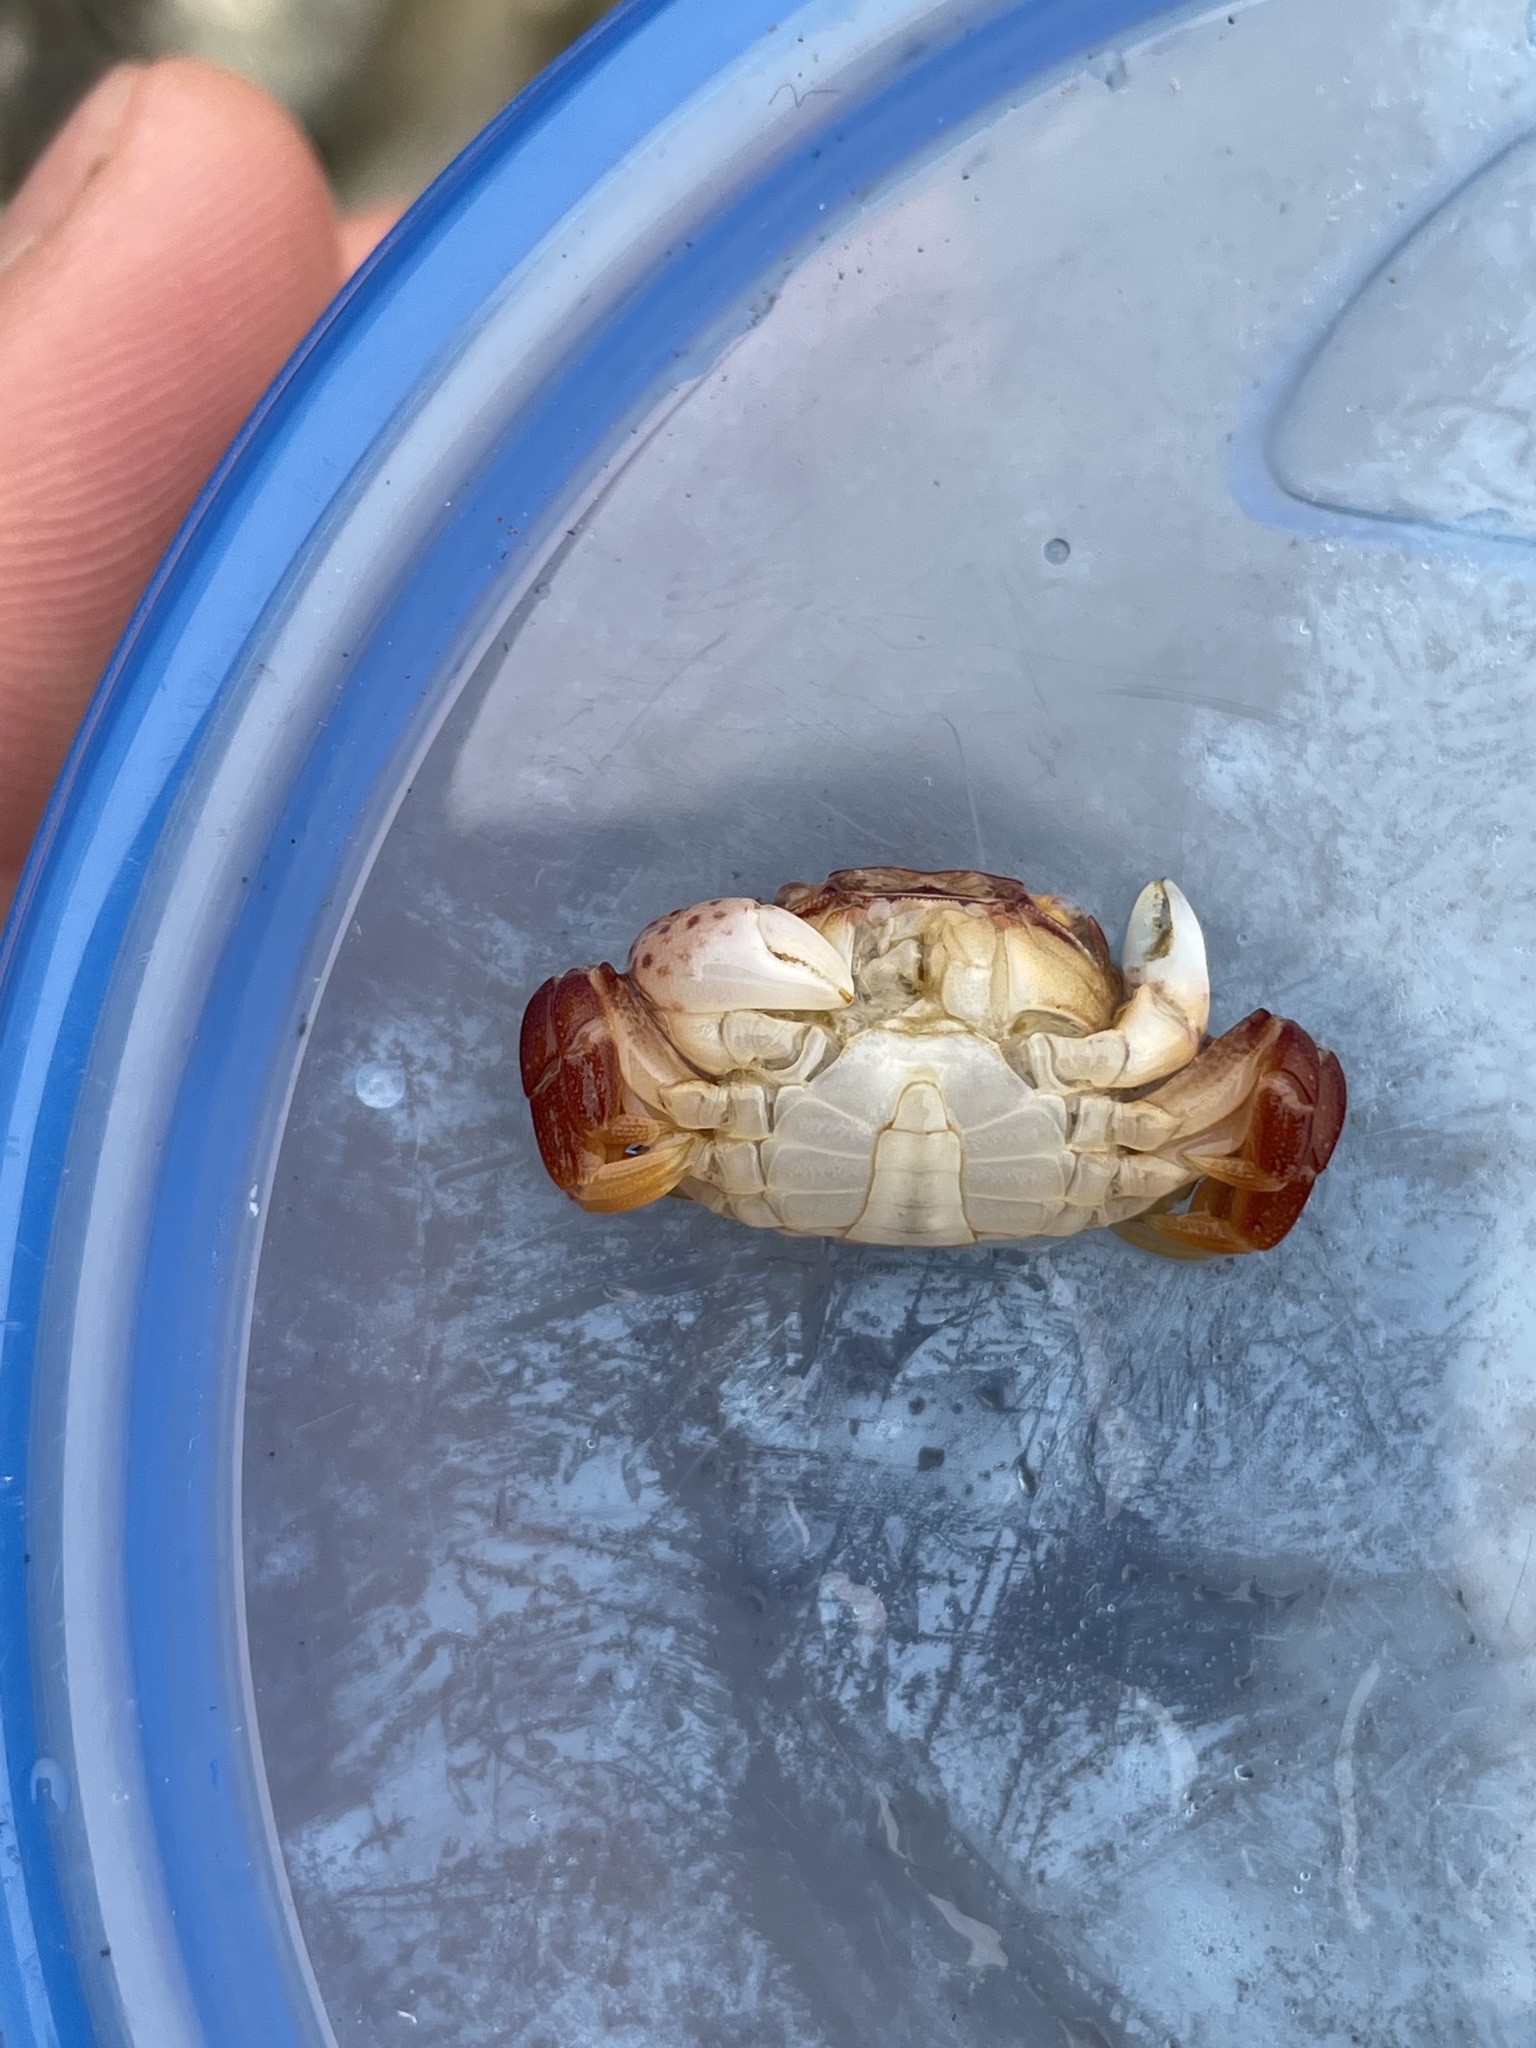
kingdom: Animalia
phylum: Arthropoda
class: Malacostraca
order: Decapoda
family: Varunidae
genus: Hemigrapsus
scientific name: Hemigrapsus nudus
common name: Purple shore crab
